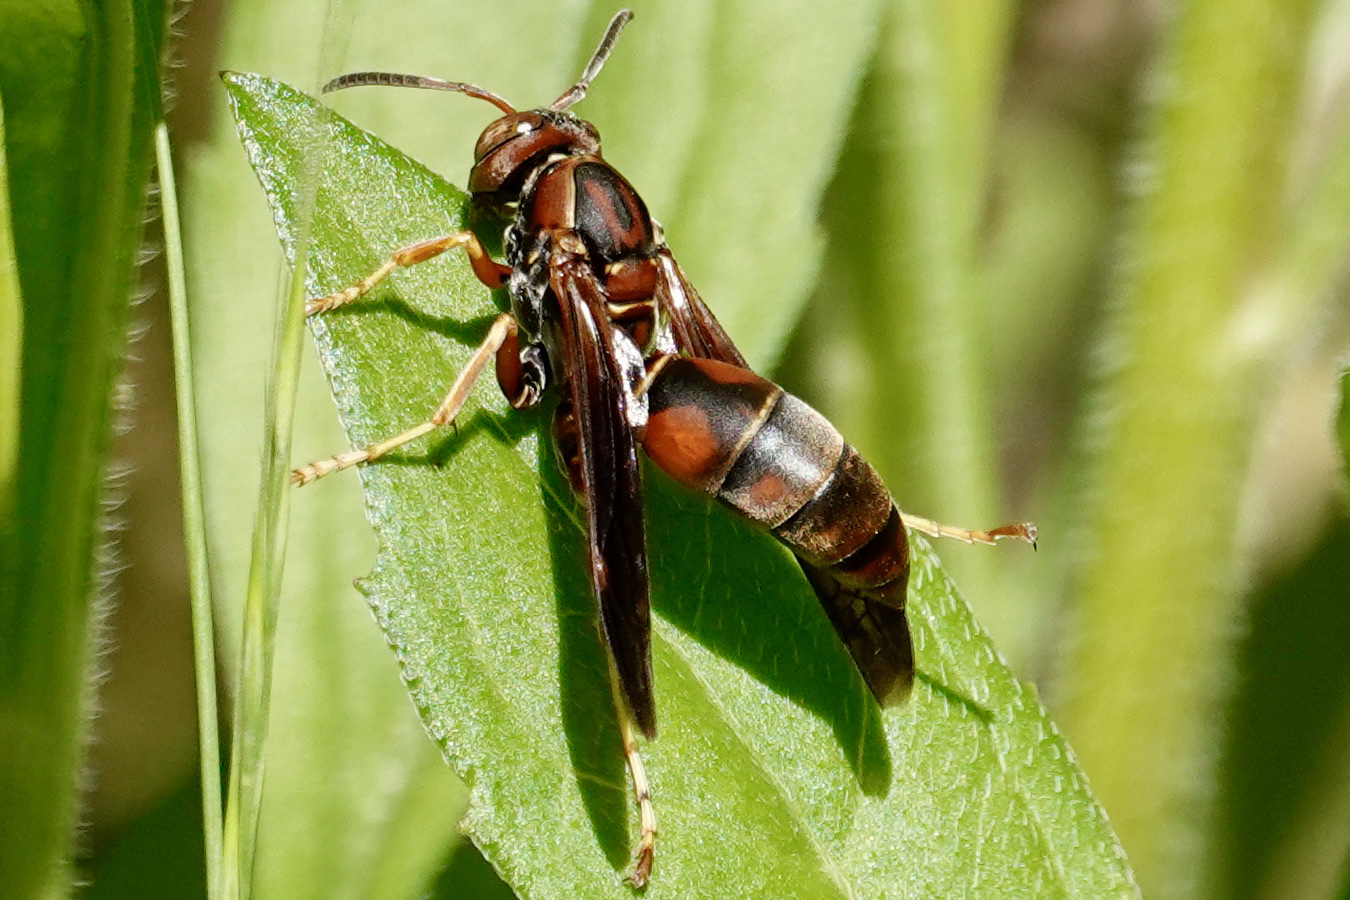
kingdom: Animalia
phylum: Arthropoda
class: Insecta
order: Hymenoptera
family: Eumenidae
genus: Polistes
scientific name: Polistes fuscatus
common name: Dark paper wasp
